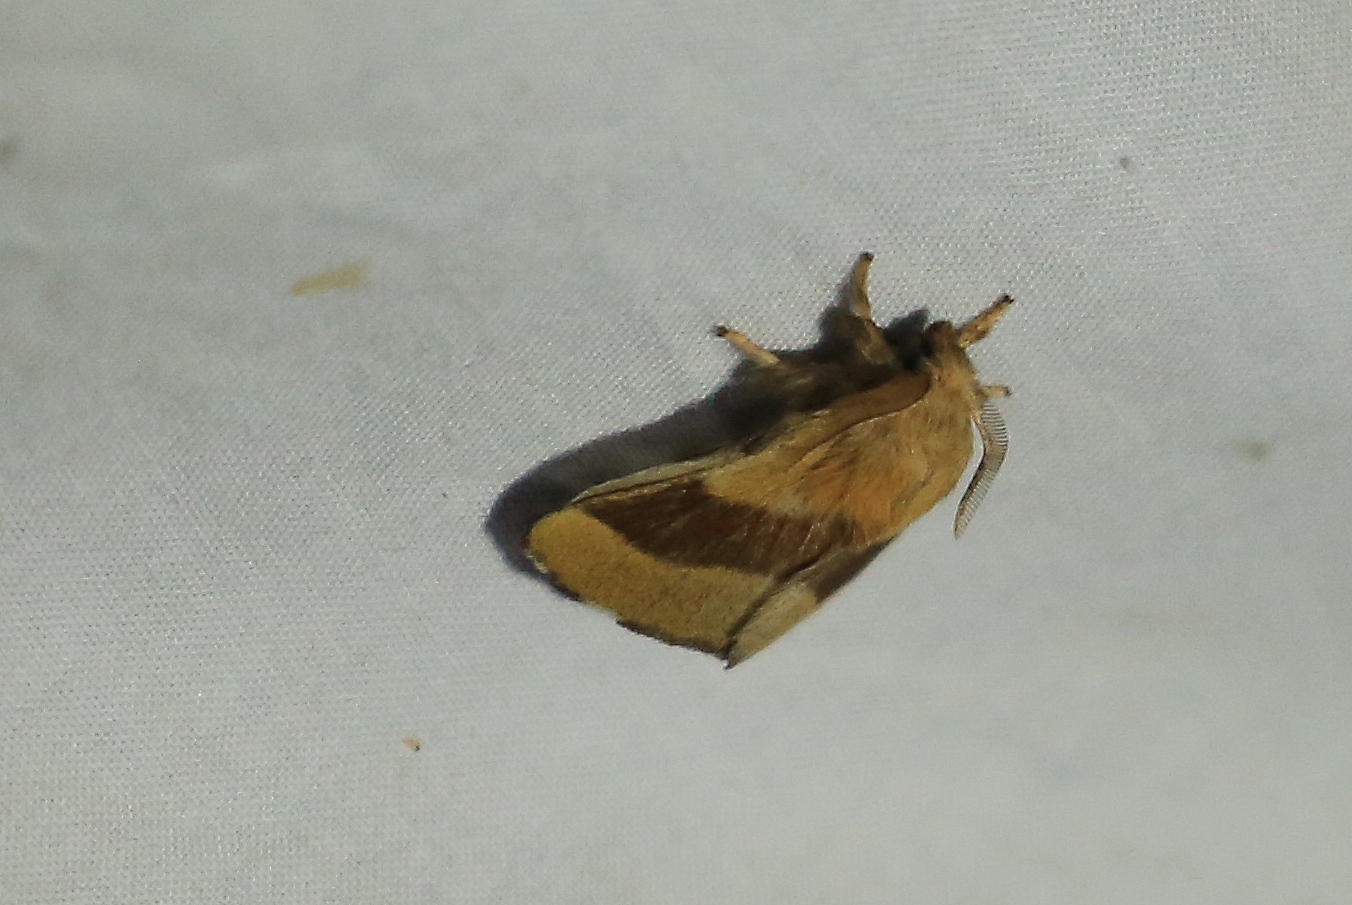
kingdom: Animalia
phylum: Arthropoda
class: Insecta
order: Lepidoptera
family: Lasiocampidae
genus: Malacosoma
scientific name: Malacosoma disstria
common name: Forest tent caterpillar
